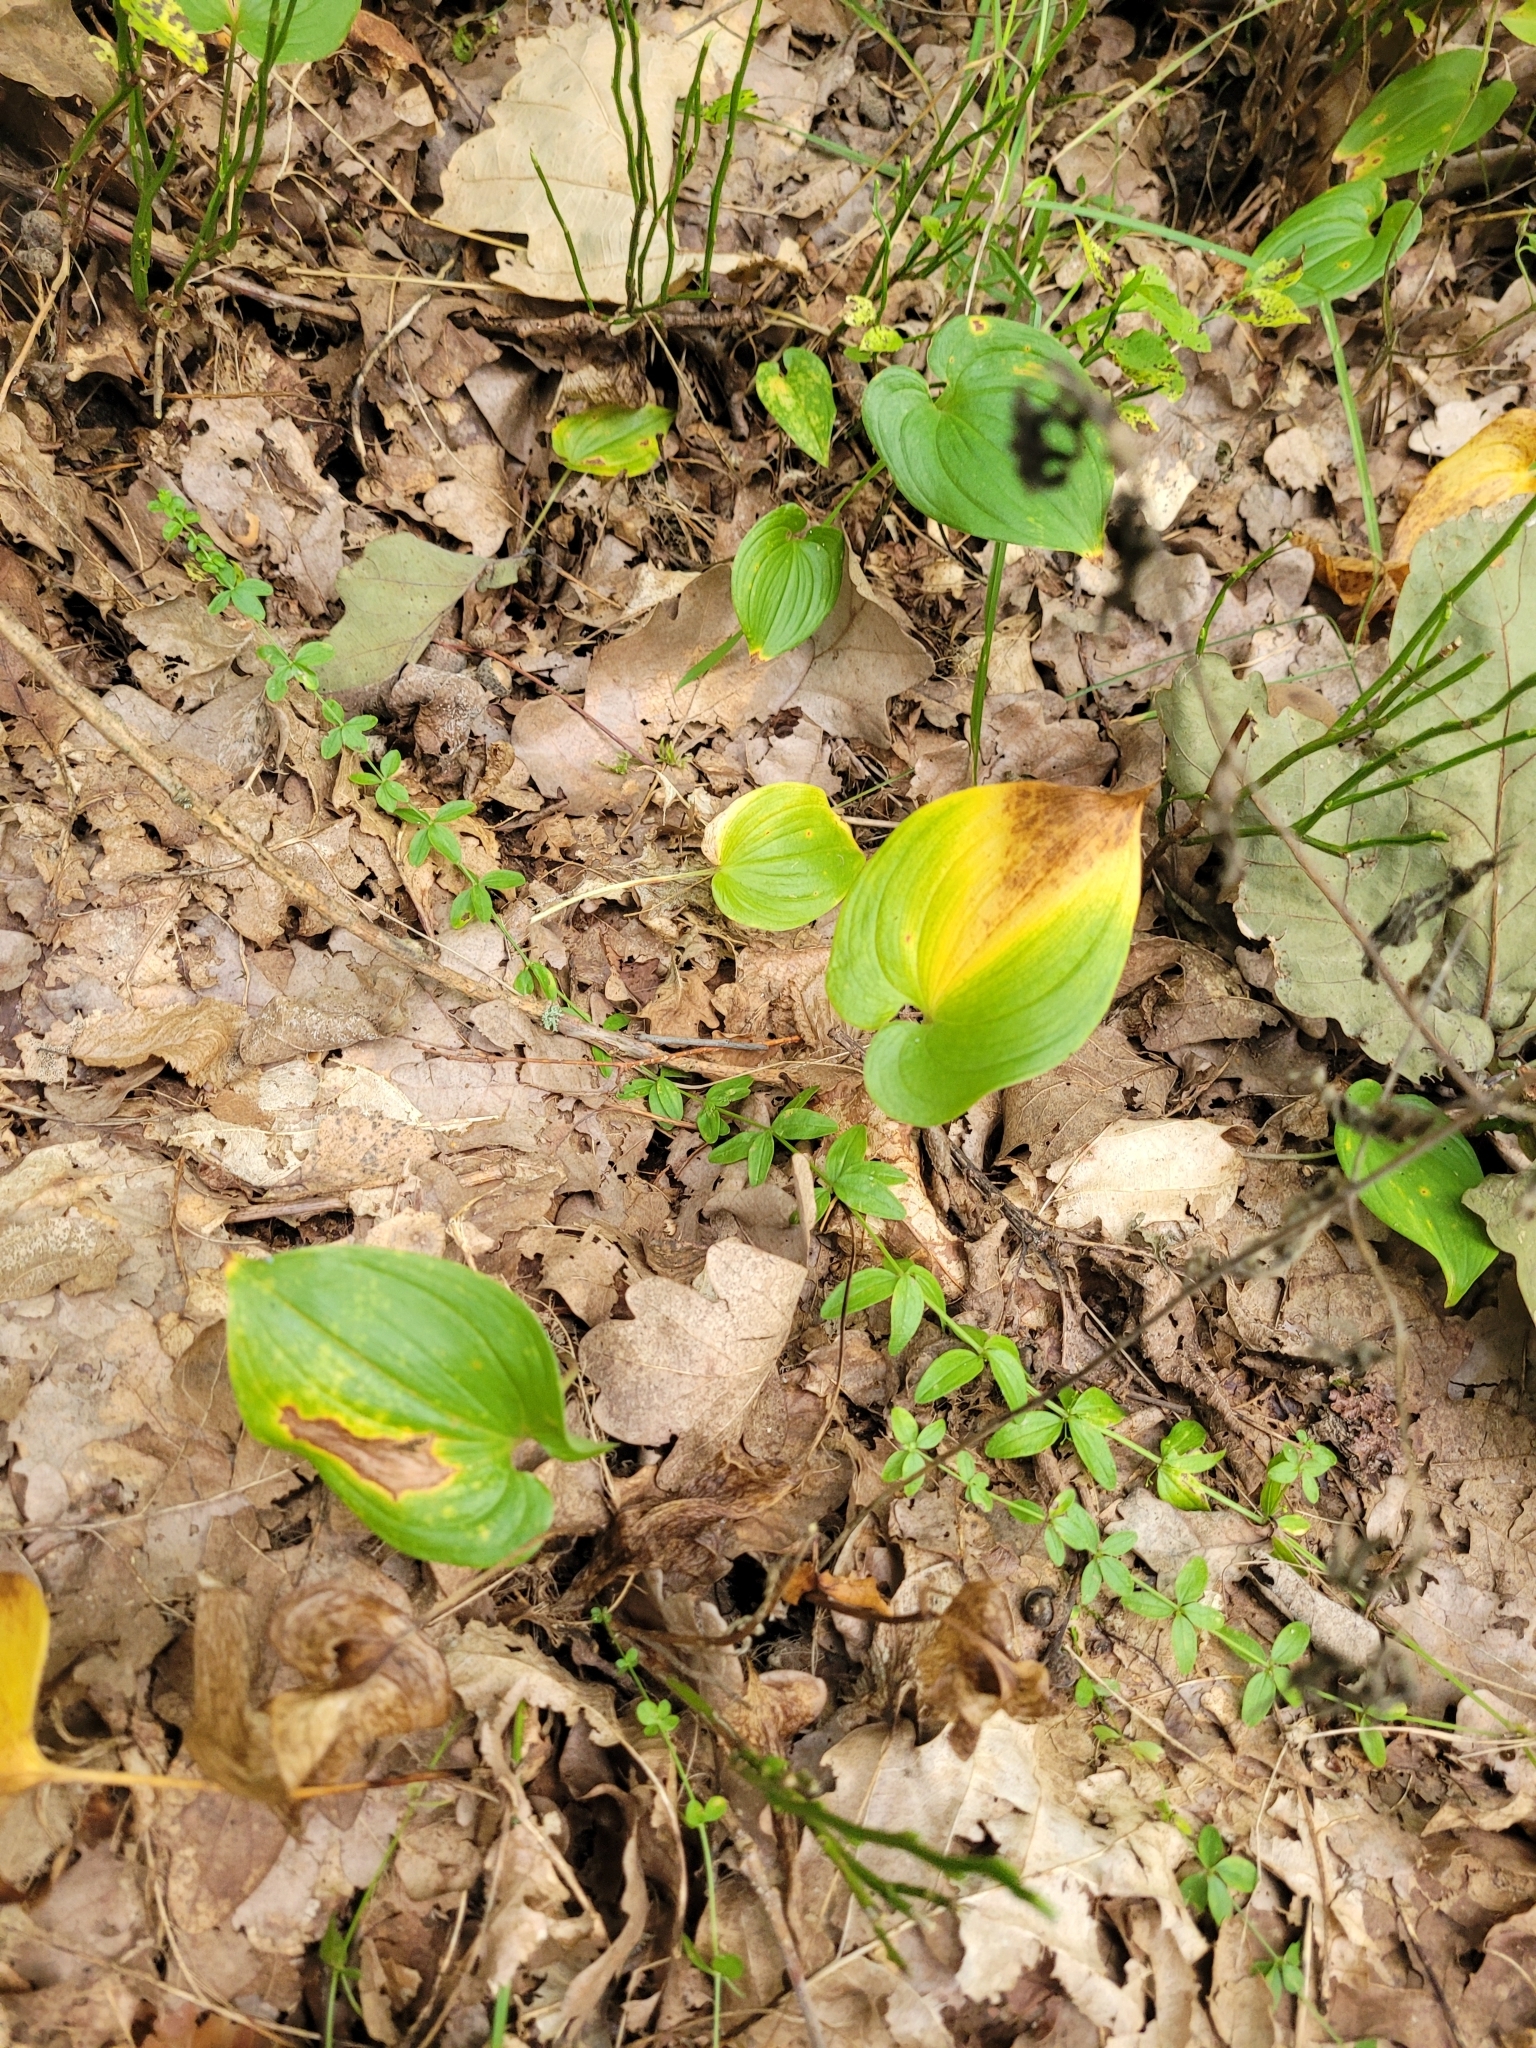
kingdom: Plantae
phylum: Tracheophyta
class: Liliopsida
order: Asparagales
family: Asparagaceae
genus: Maianthemum
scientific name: Maianthemum bifolium
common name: May lily
